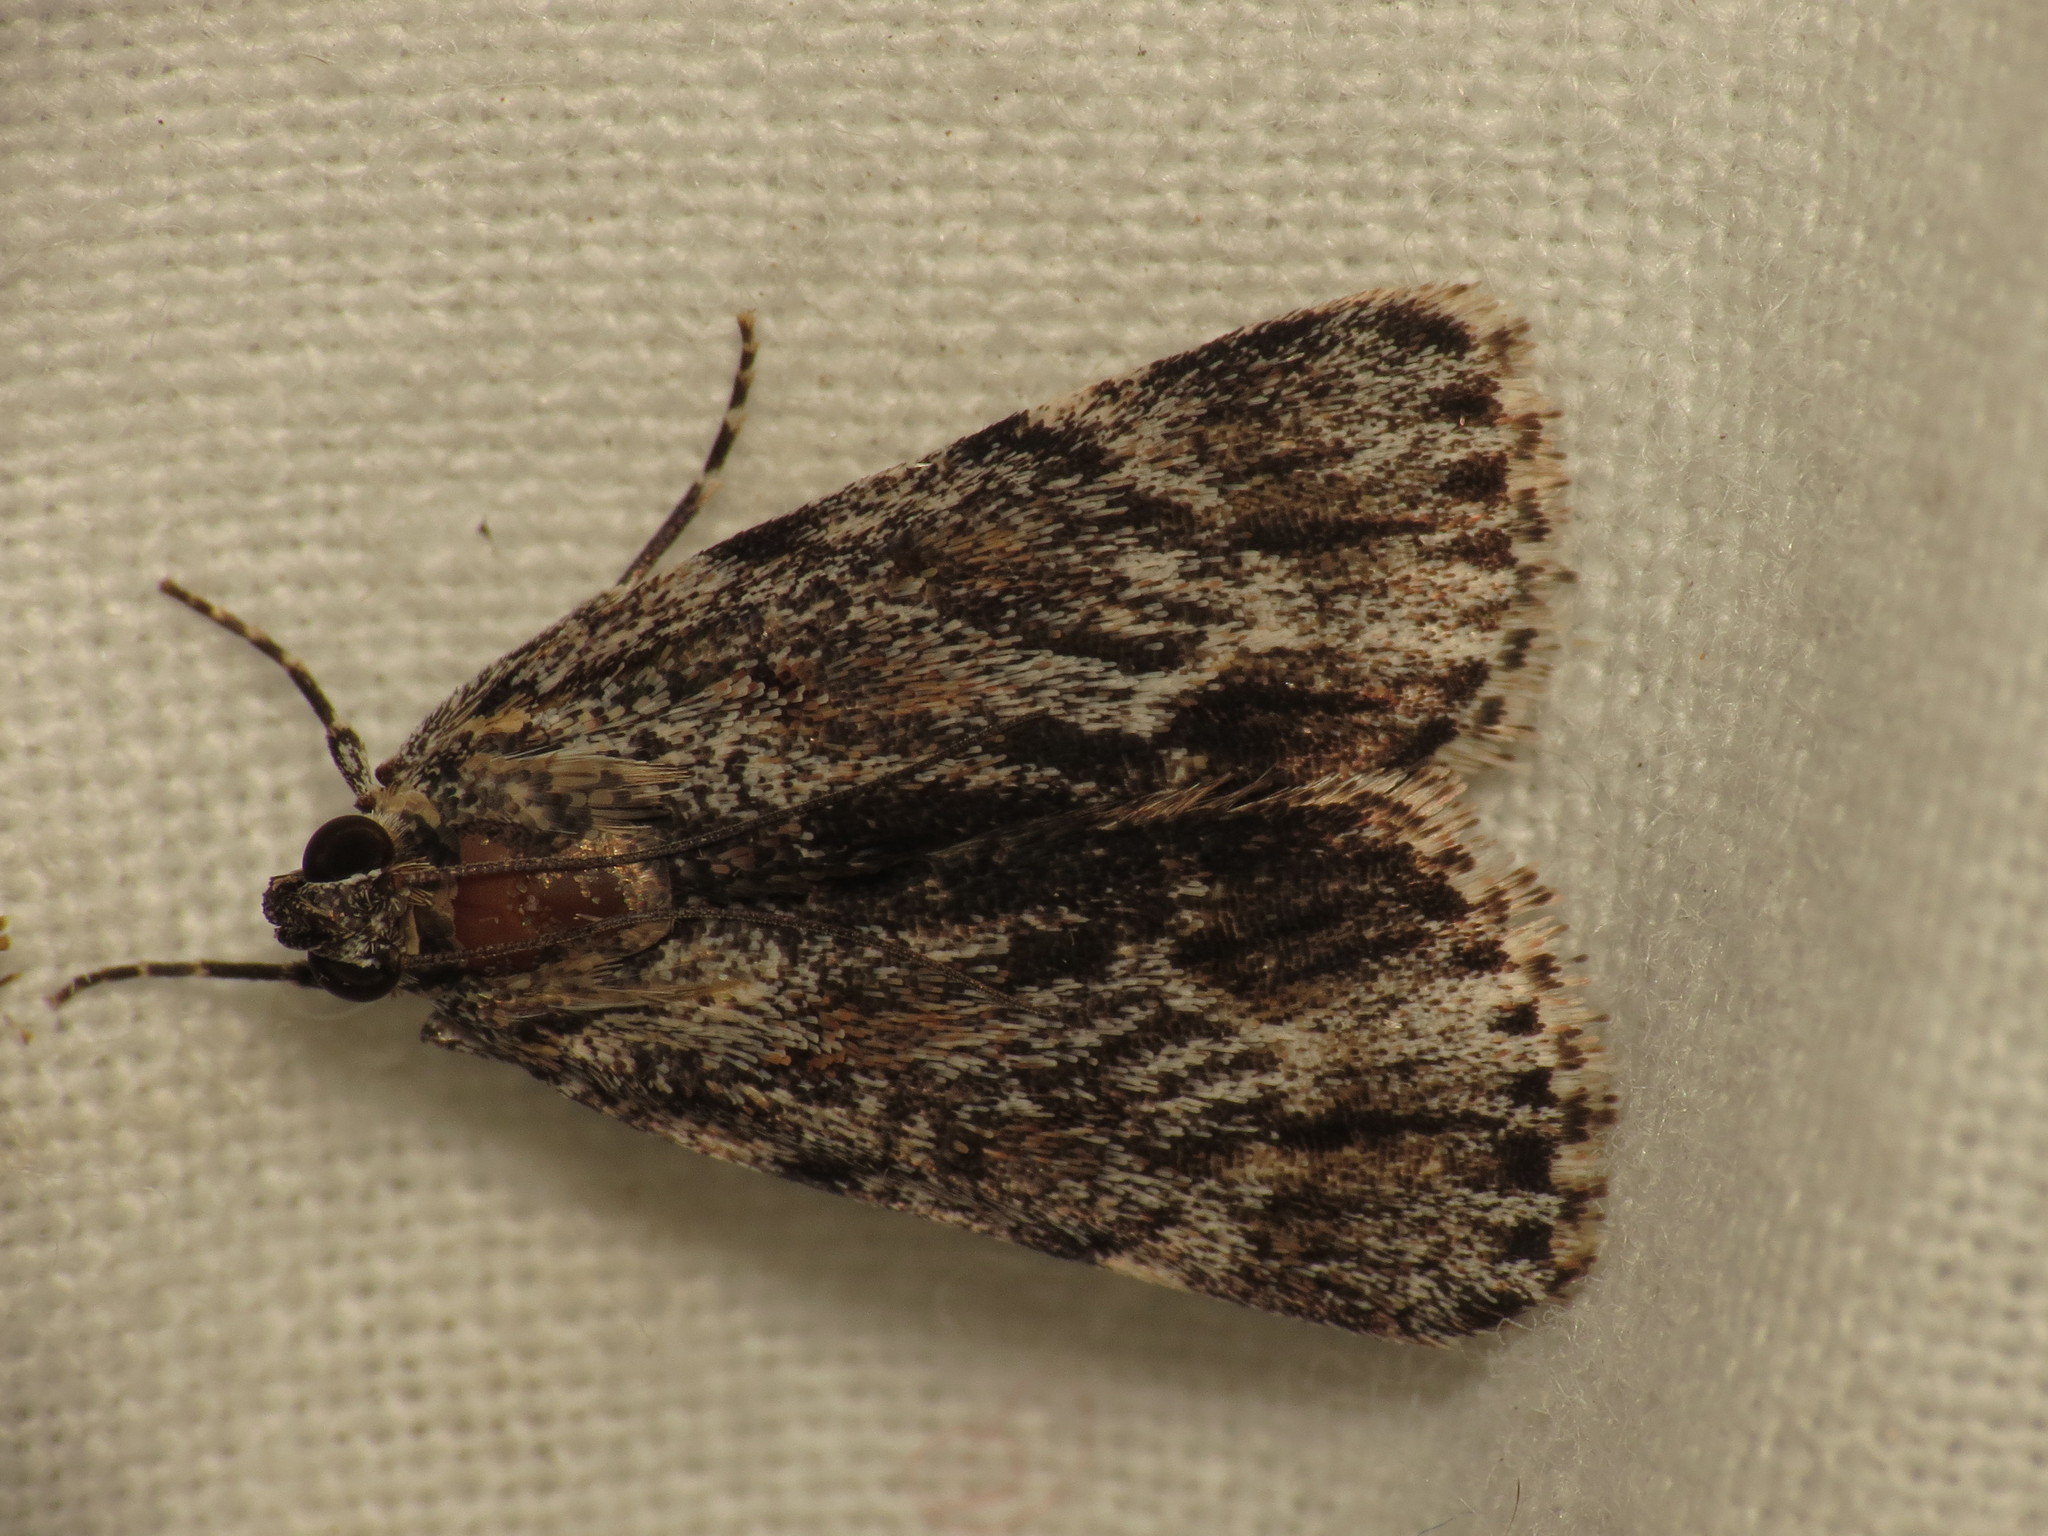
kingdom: Animalia
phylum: Arthropoda
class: Insecta
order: Lepidoptera
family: Pyralidae
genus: Spectrotrota
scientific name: Spectrotrota fimbrialis
